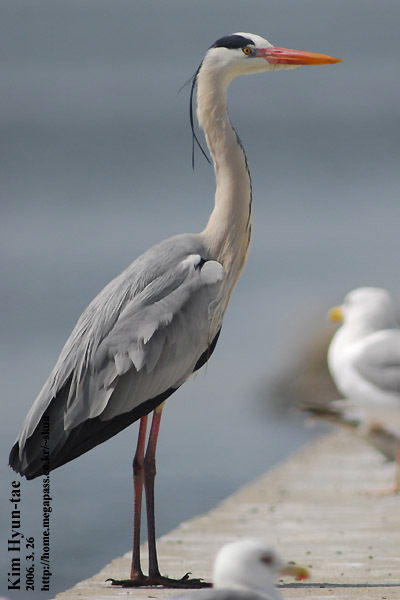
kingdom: Animalia
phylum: Chordata
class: Aves
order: Pelecaniformes
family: Ardeidae
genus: Ardea
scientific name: Ardea cinerea
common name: Grey heron
